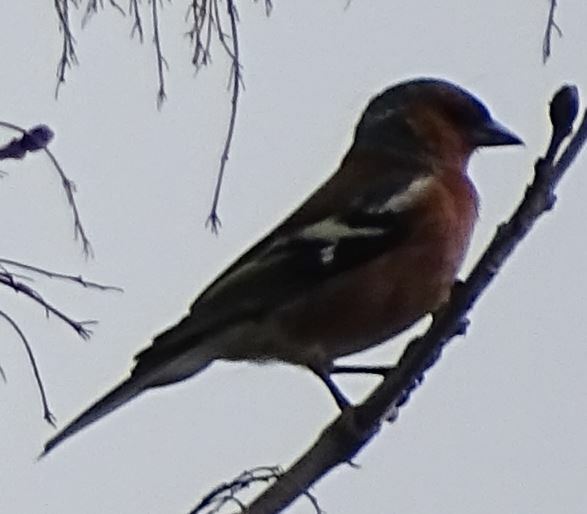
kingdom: Animalia
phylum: Chordata
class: Aves
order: Passeriformes
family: Fringillidae
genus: Fringilla
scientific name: Fringilla coelebs
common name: Common chaffinch
